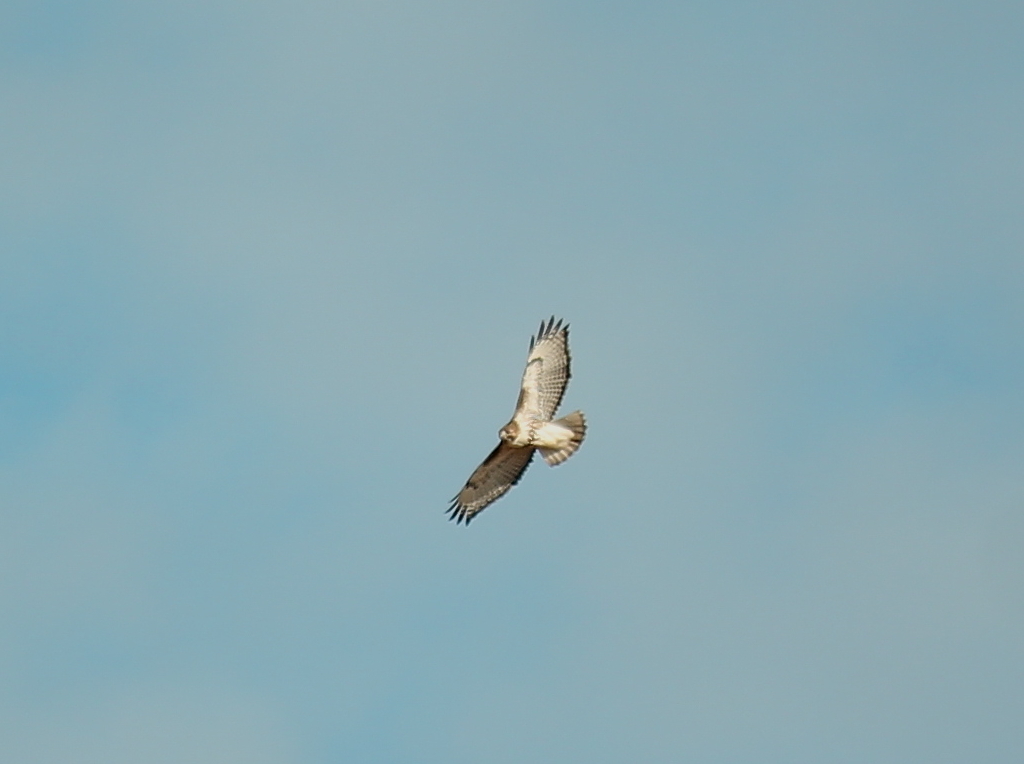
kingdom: Animalia
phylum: Chordata
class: Aves
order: Accipitriformes
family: Accipitridae
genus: Buteo
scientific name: Buteo jamaicensis
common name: Red-tailed hawk
